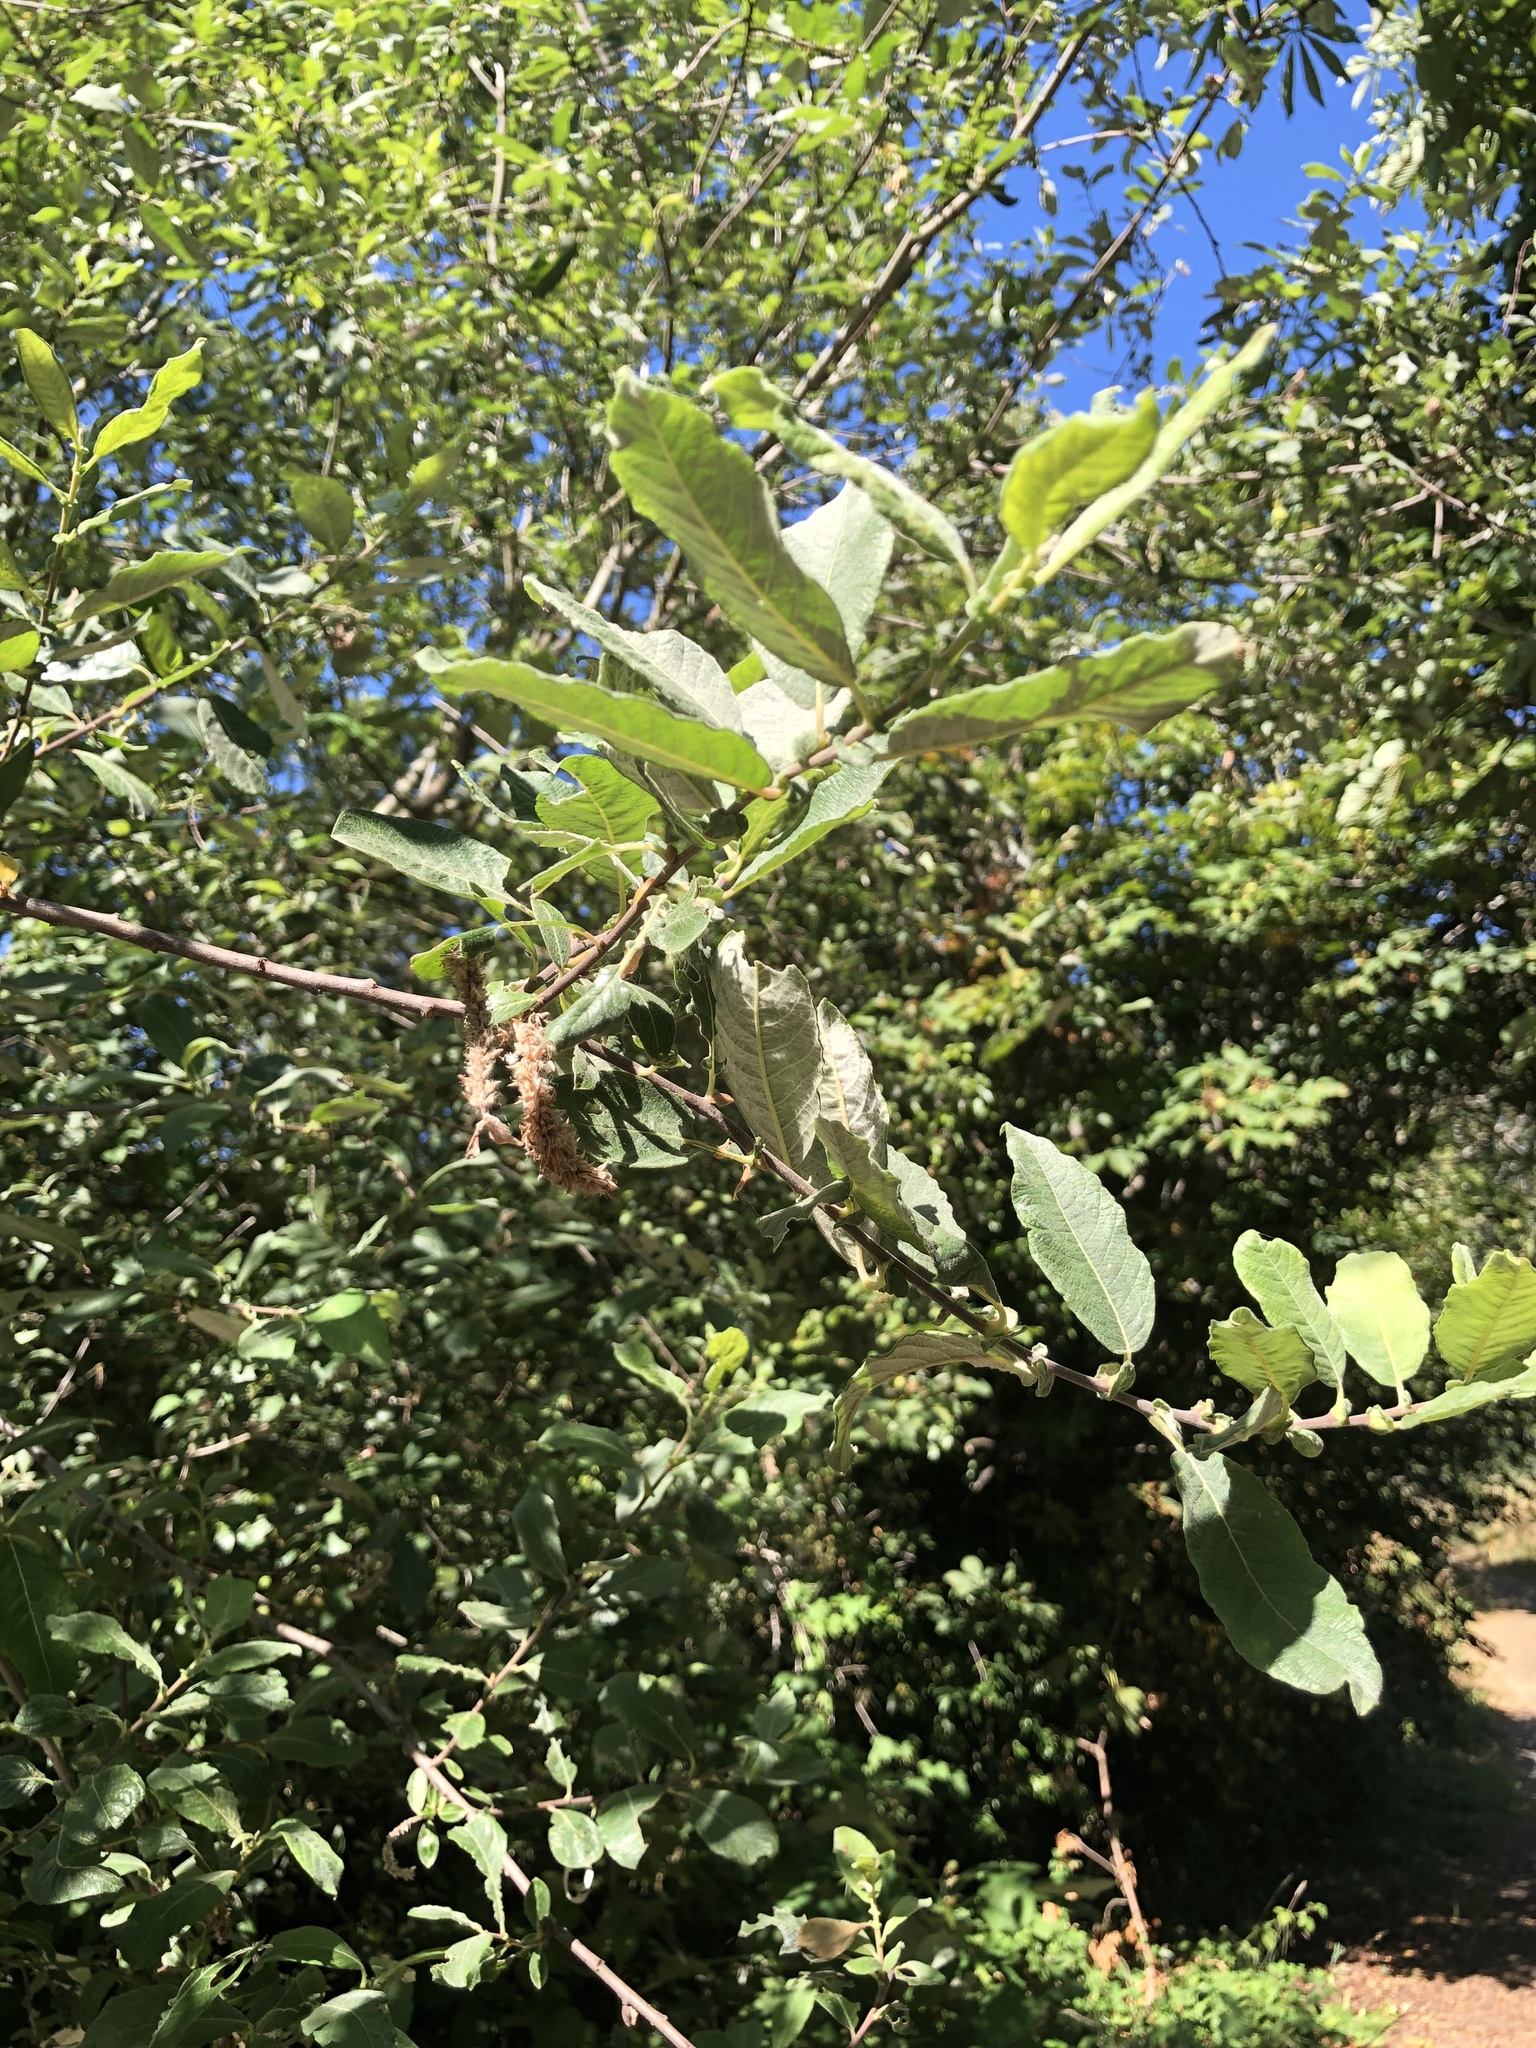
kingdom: Plantae
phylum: Tracheophyta
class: Magnoliopsida
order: Malpighiales
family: Salicaceae
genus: Salix
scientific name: Salix sitchensis
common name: Sitka willow
